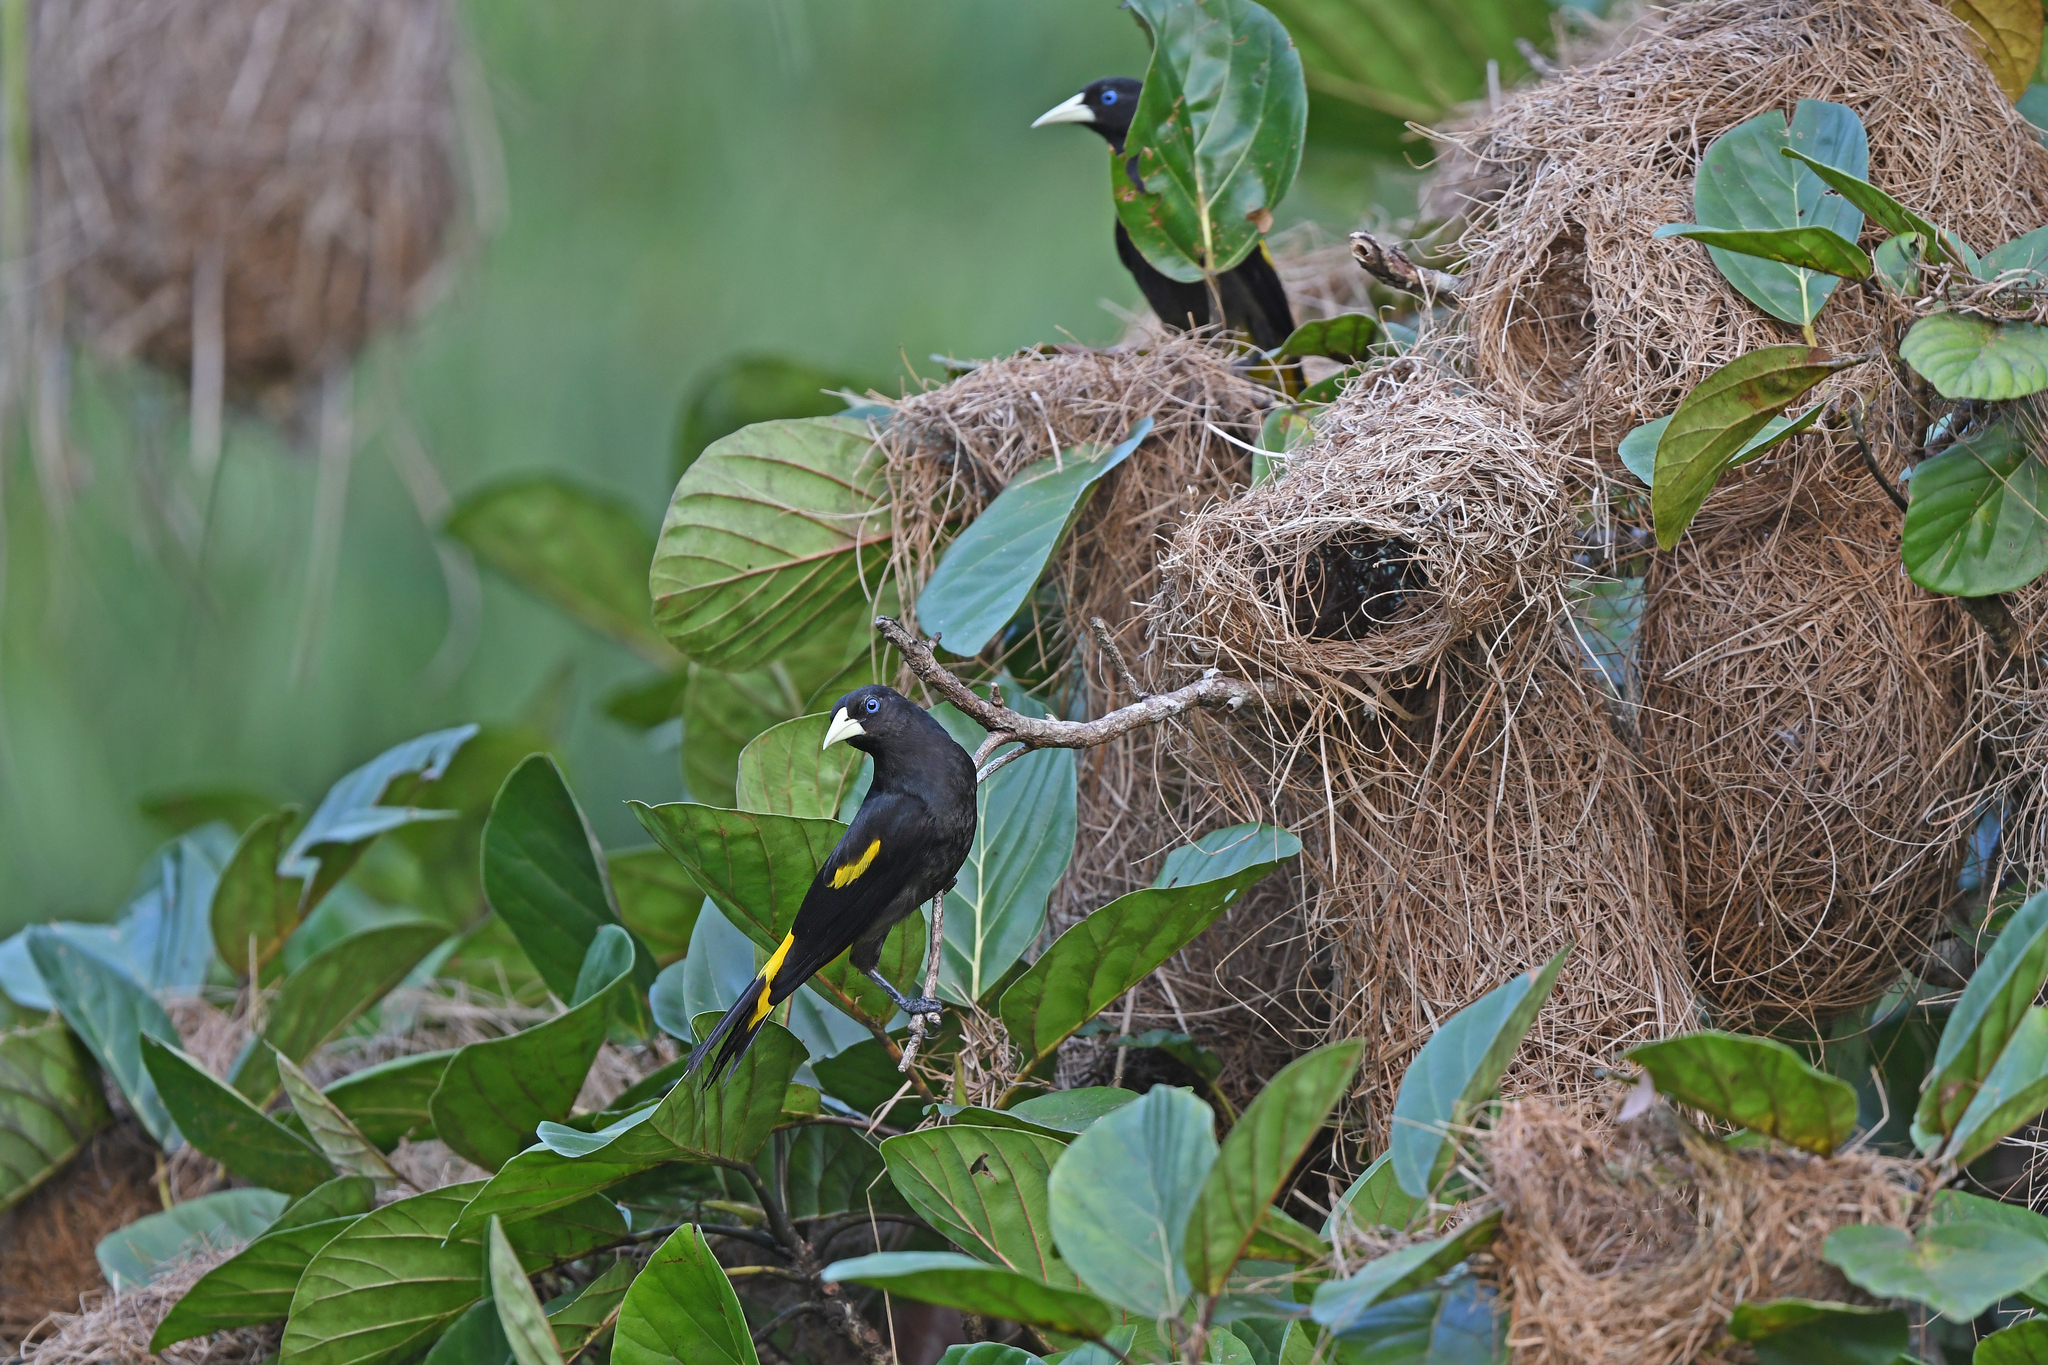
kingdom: Animalia
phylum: Chordata
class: Aves
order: Passeriformes
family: Icteridae
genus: Cacicus
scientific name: Cacicus cela
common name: Yellow-rumped cacique
